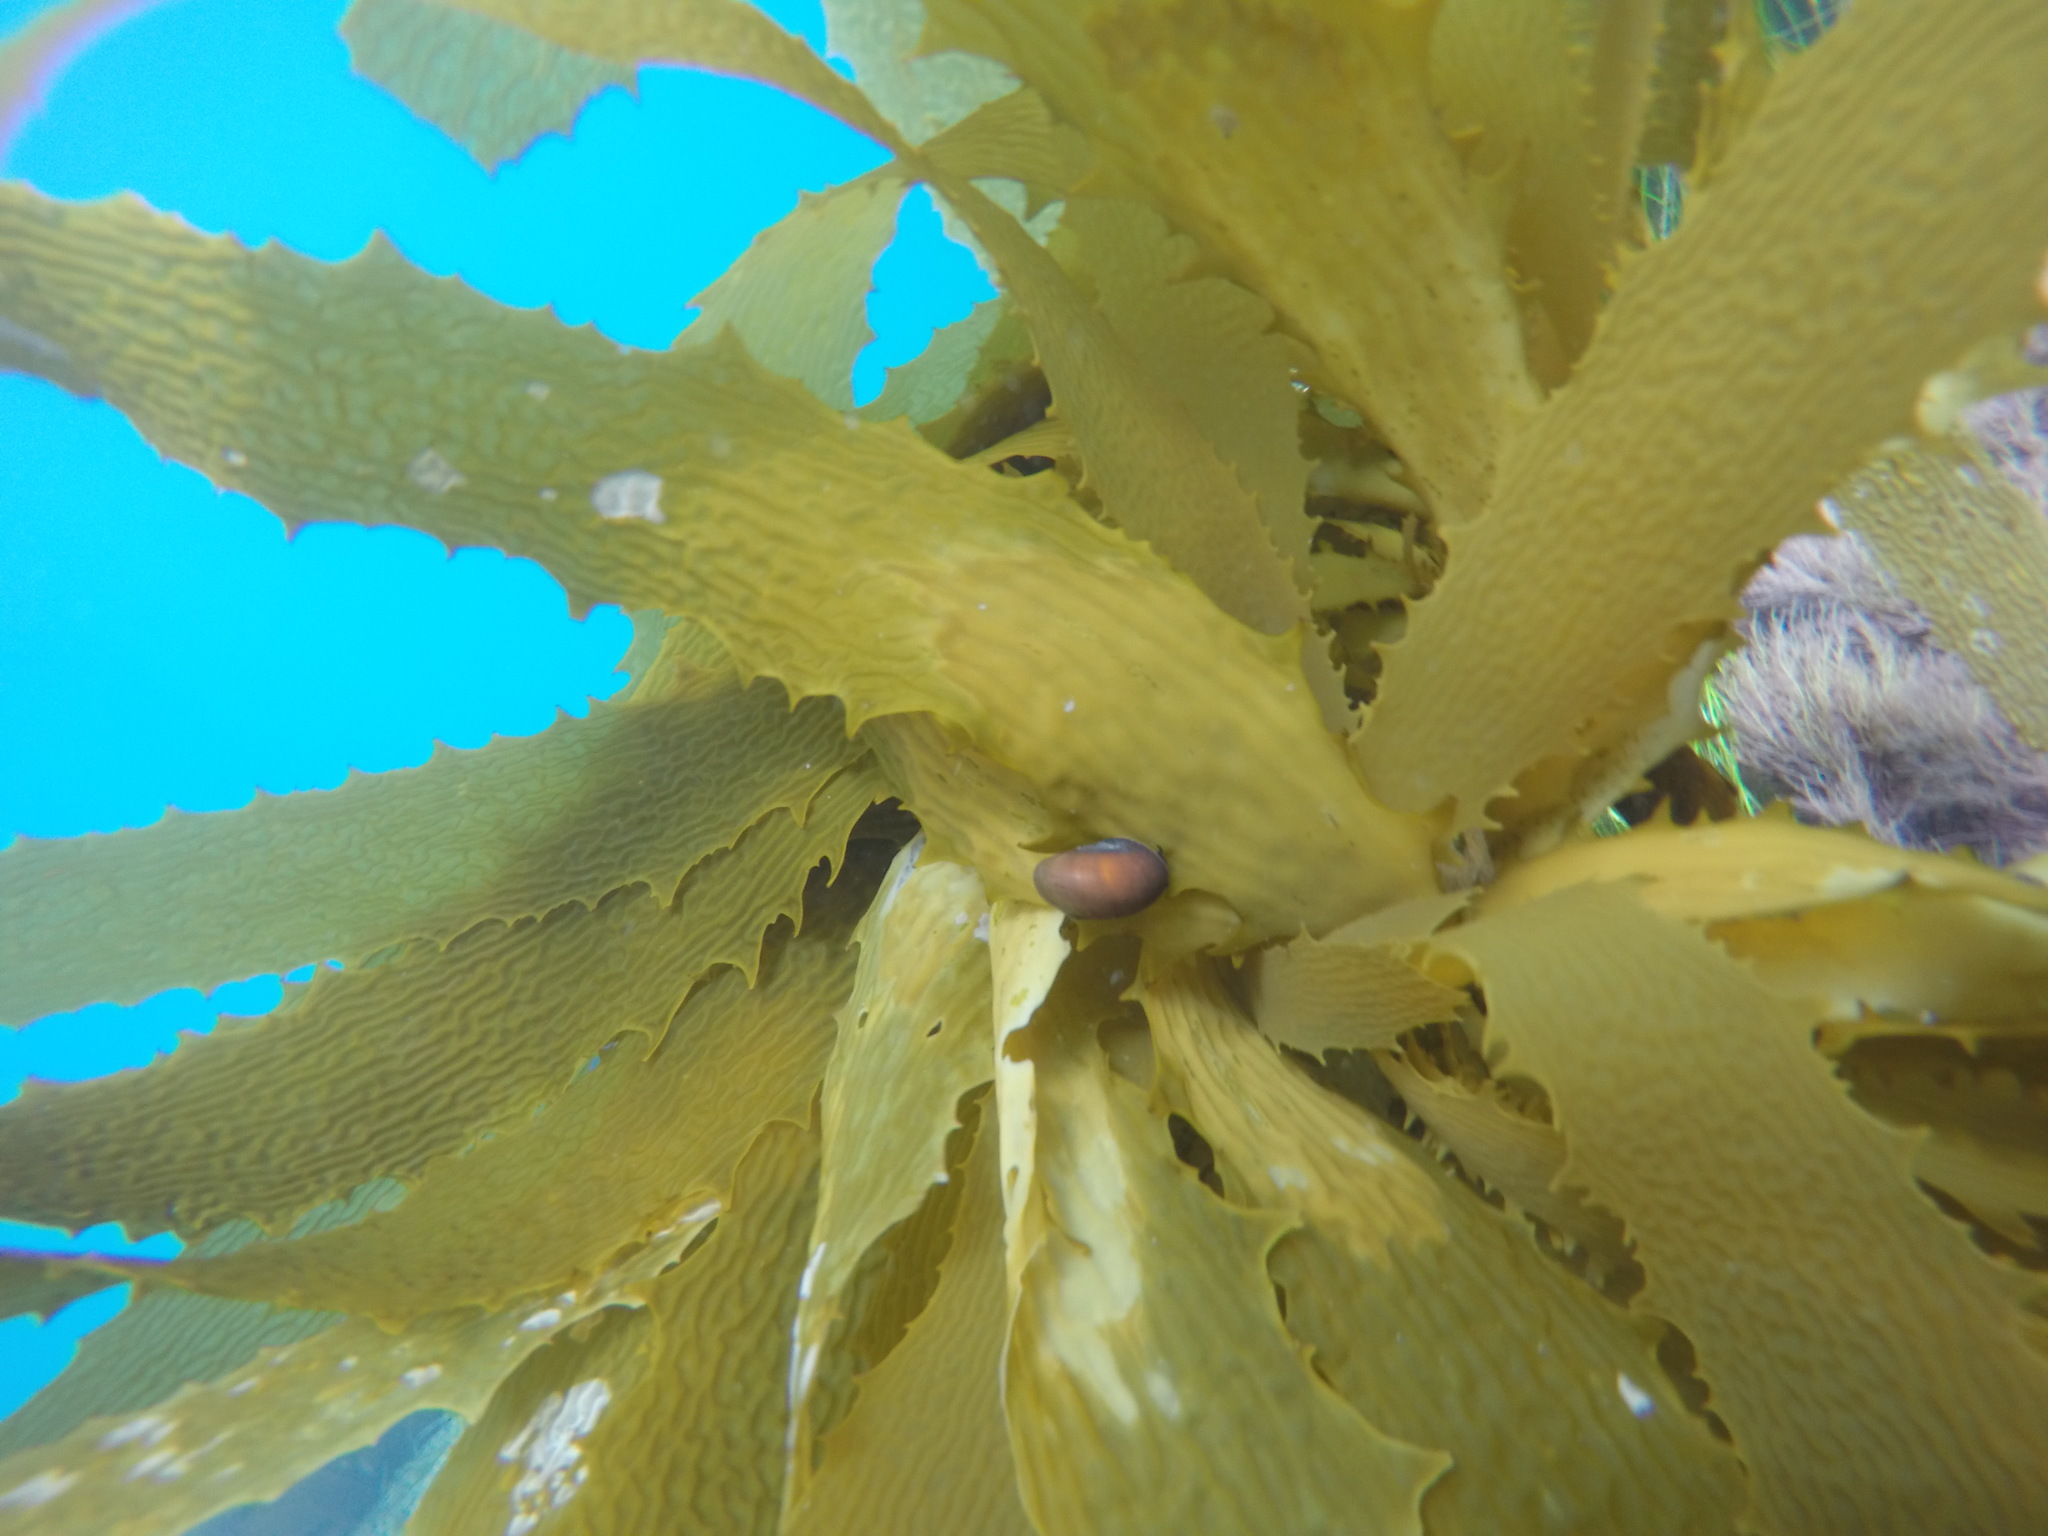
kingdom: Animalia
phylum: Mollusca
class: Gastropoda
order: Trochida
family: Tegulidae
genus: Norrisia
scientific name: Norrisia norrisii
